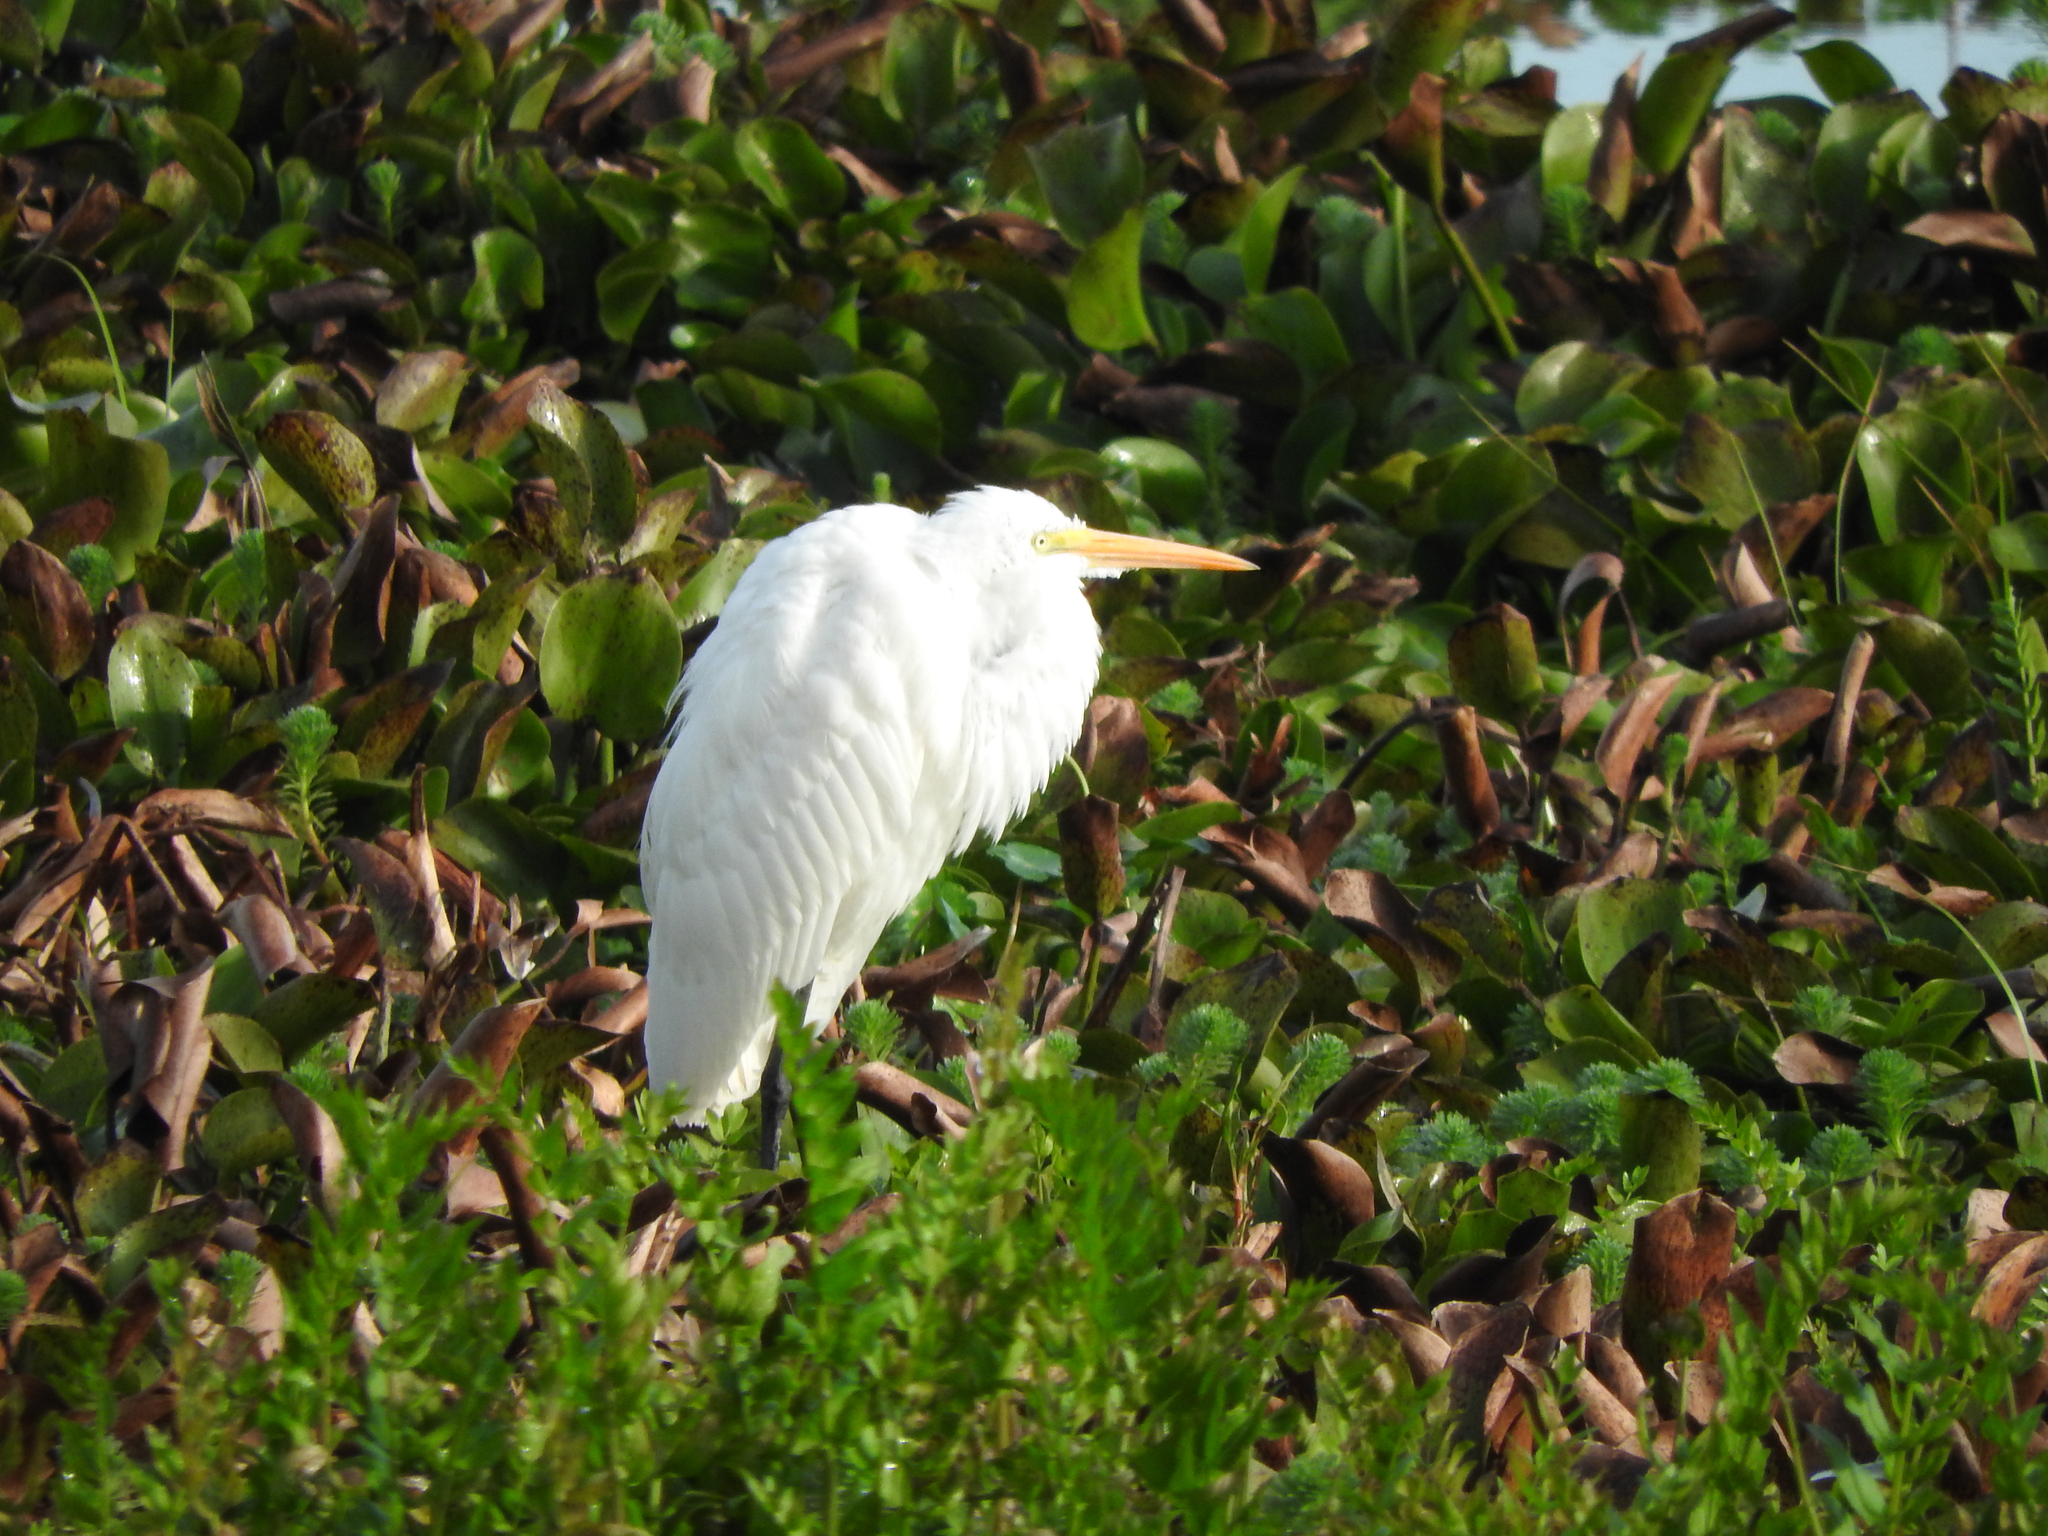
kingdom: Animalia
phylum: Chordata
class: Aves
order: Pelecaniformes
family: Ardeidae
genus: Ardea
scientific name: Ardea alba
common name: Great egret
